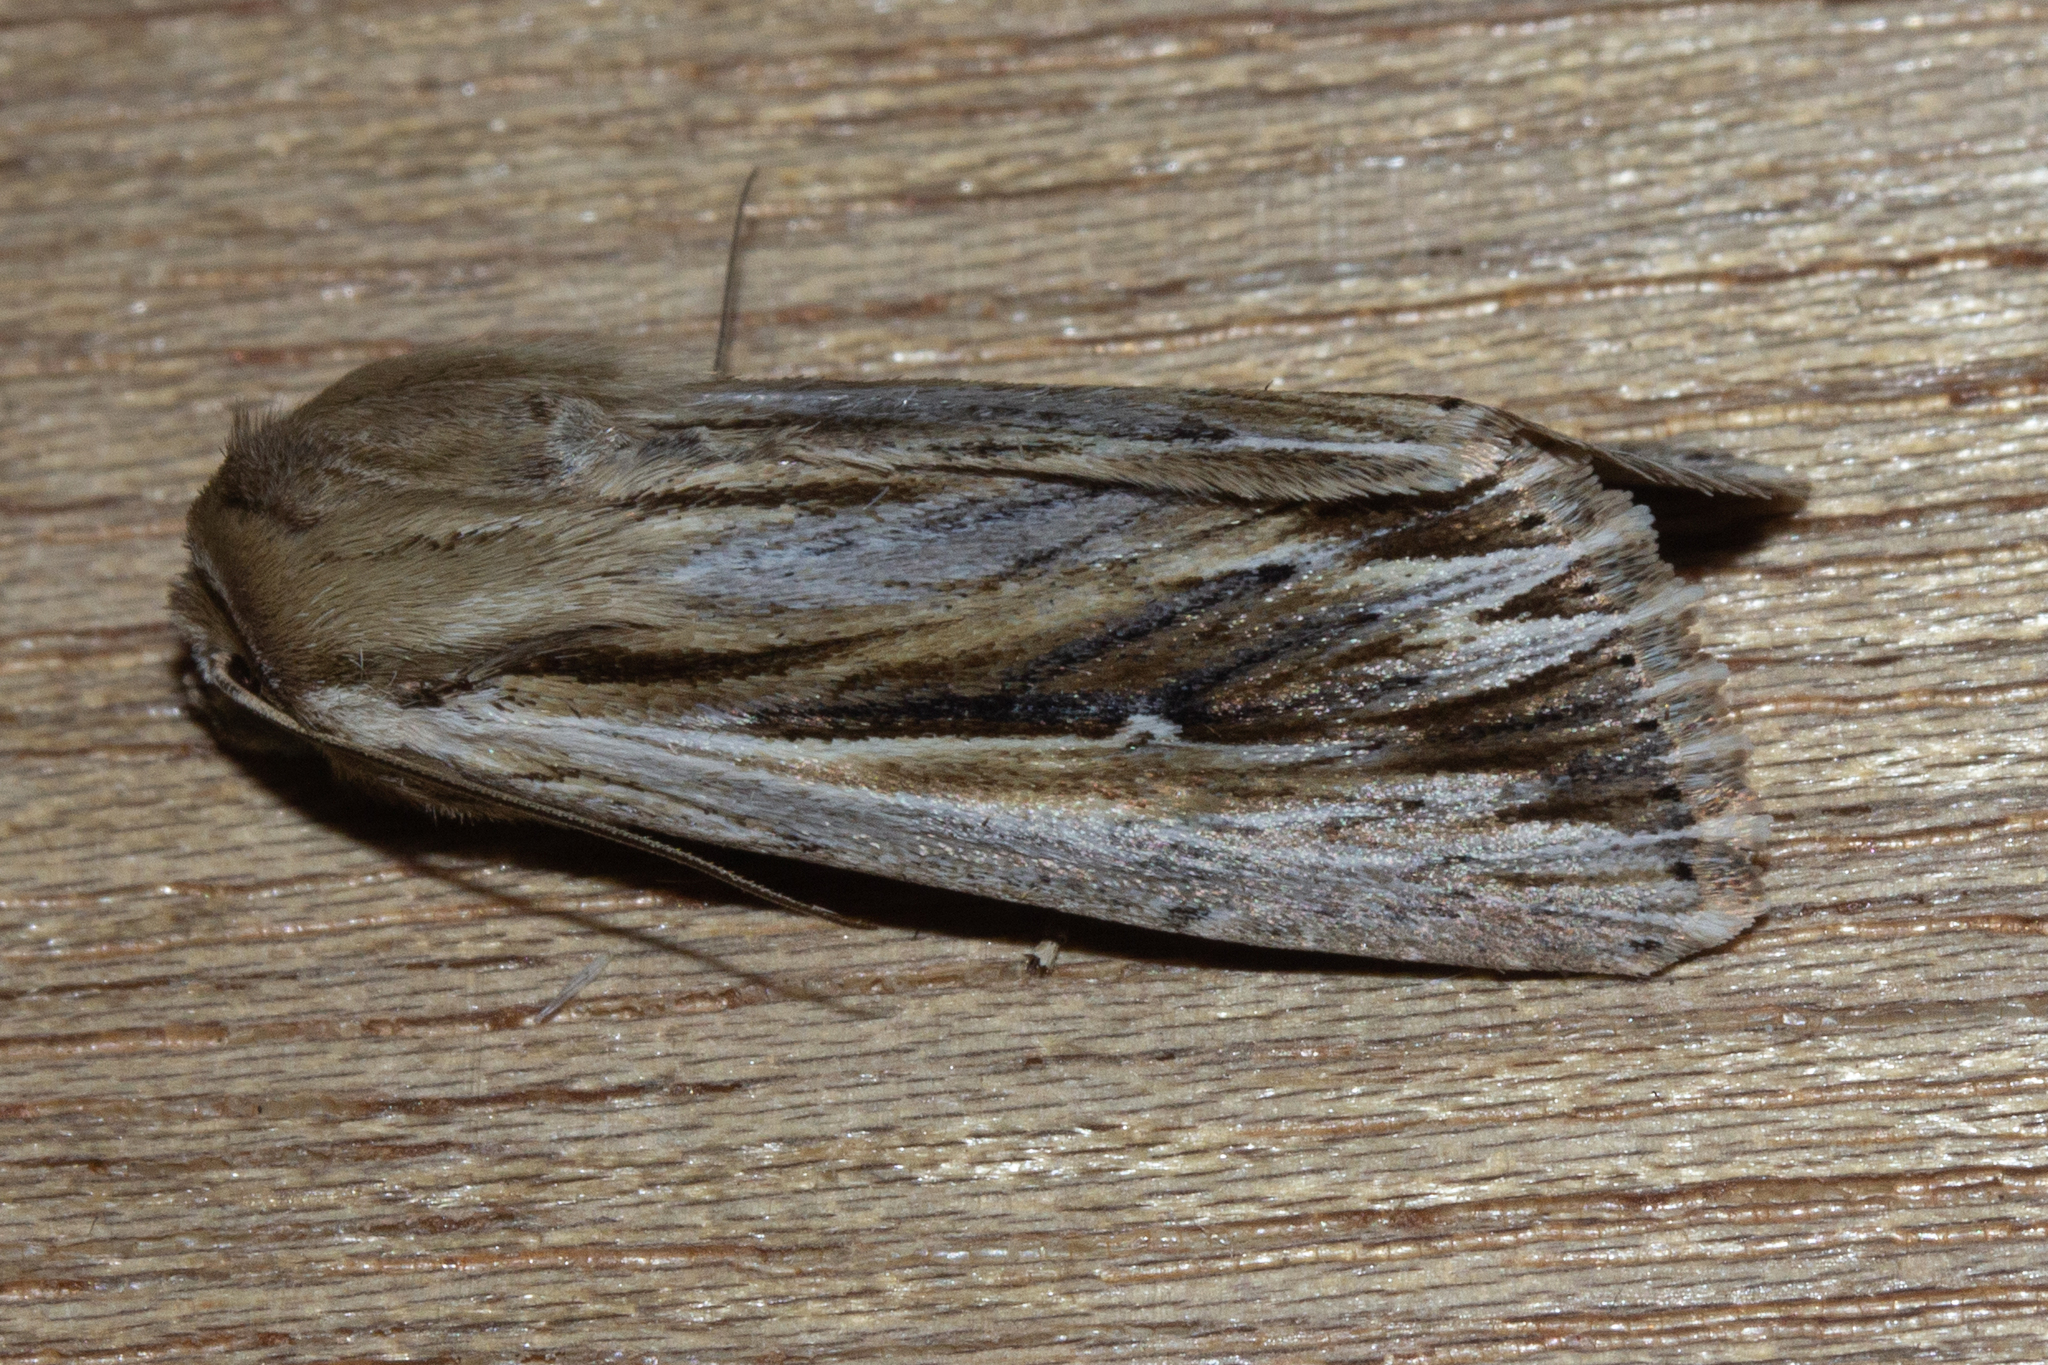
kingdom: Animalia
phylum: Arthropoda
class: Insecta
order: Lepidoptera
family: Noctuidae
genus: Persectania
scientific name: Persectania aversa
